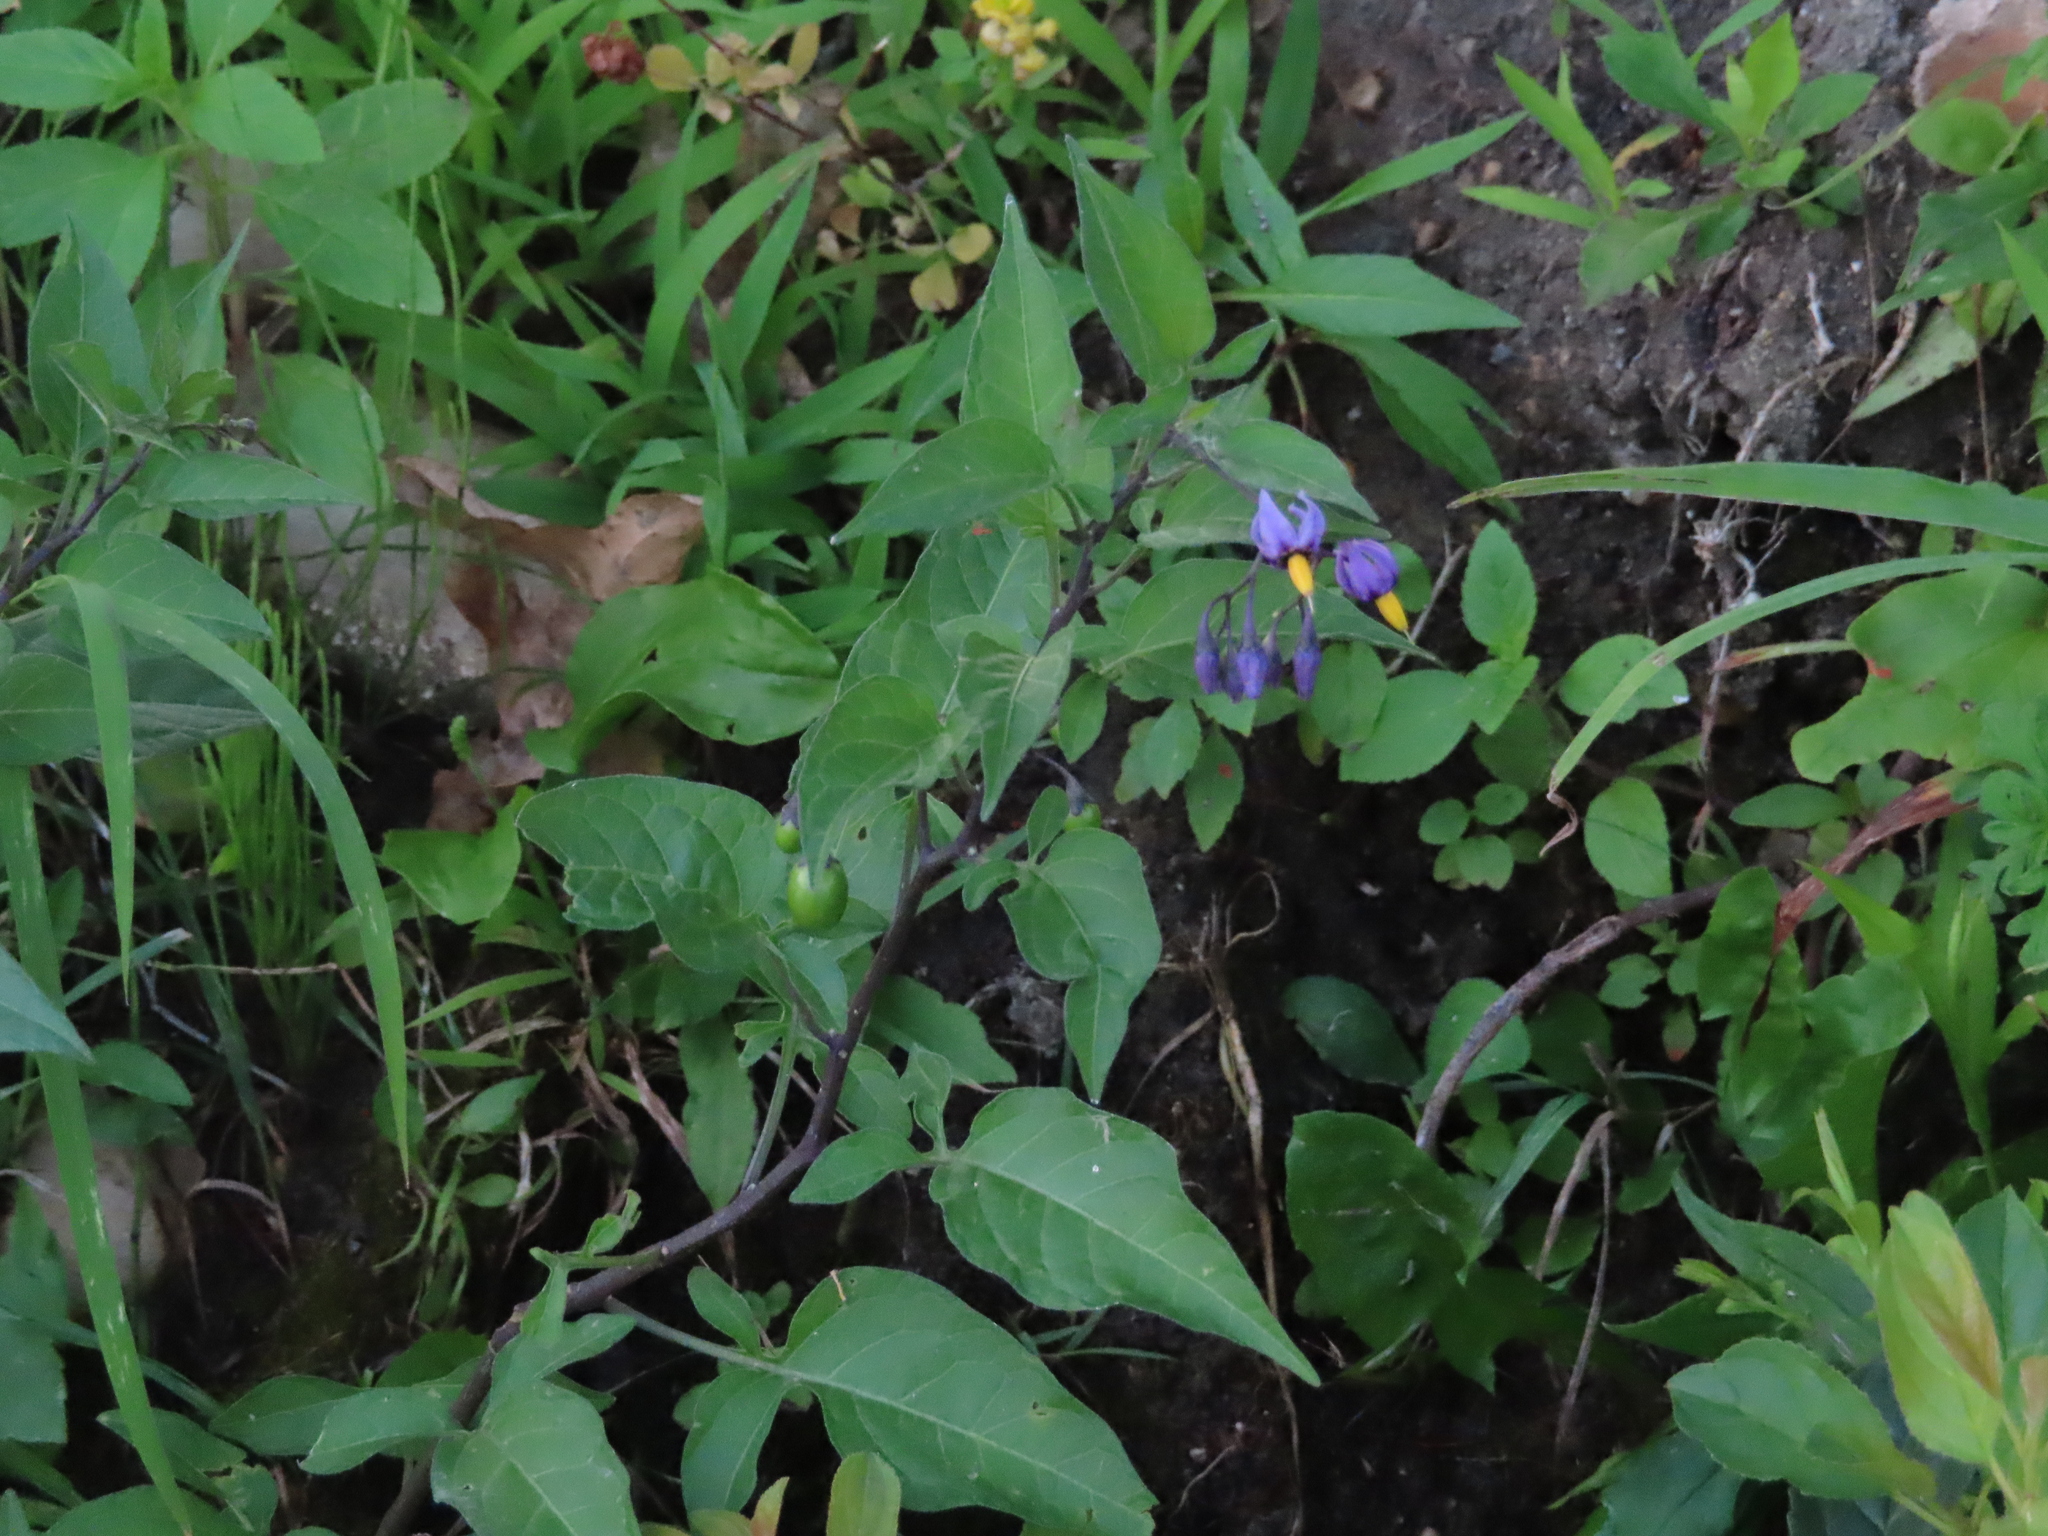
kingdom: Plantae
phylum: Tracheophyta
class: Magnoliopsida
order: Solanales
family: Solanaceae
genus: Solanum
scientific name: Solanum dulcamara
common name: Climbing nightshade
